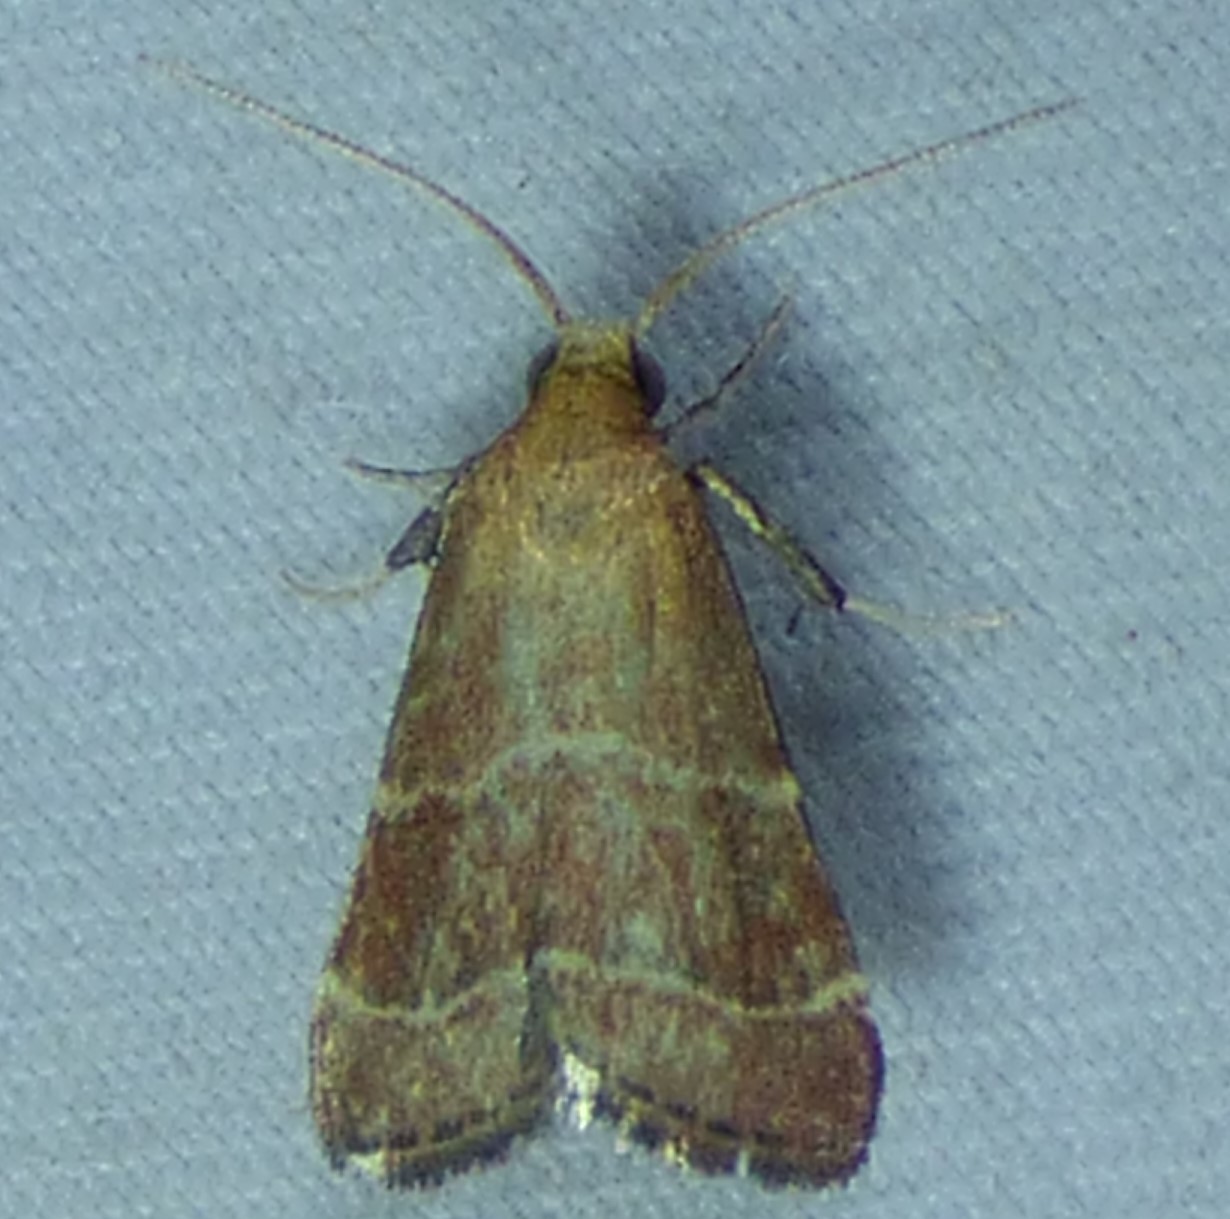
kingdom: Animalia
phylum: Arthropoda
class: Insecta
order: Lepidoptera
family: Pyralidae
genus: Arta
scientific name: Arta statalis
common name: Posturing arta moth
